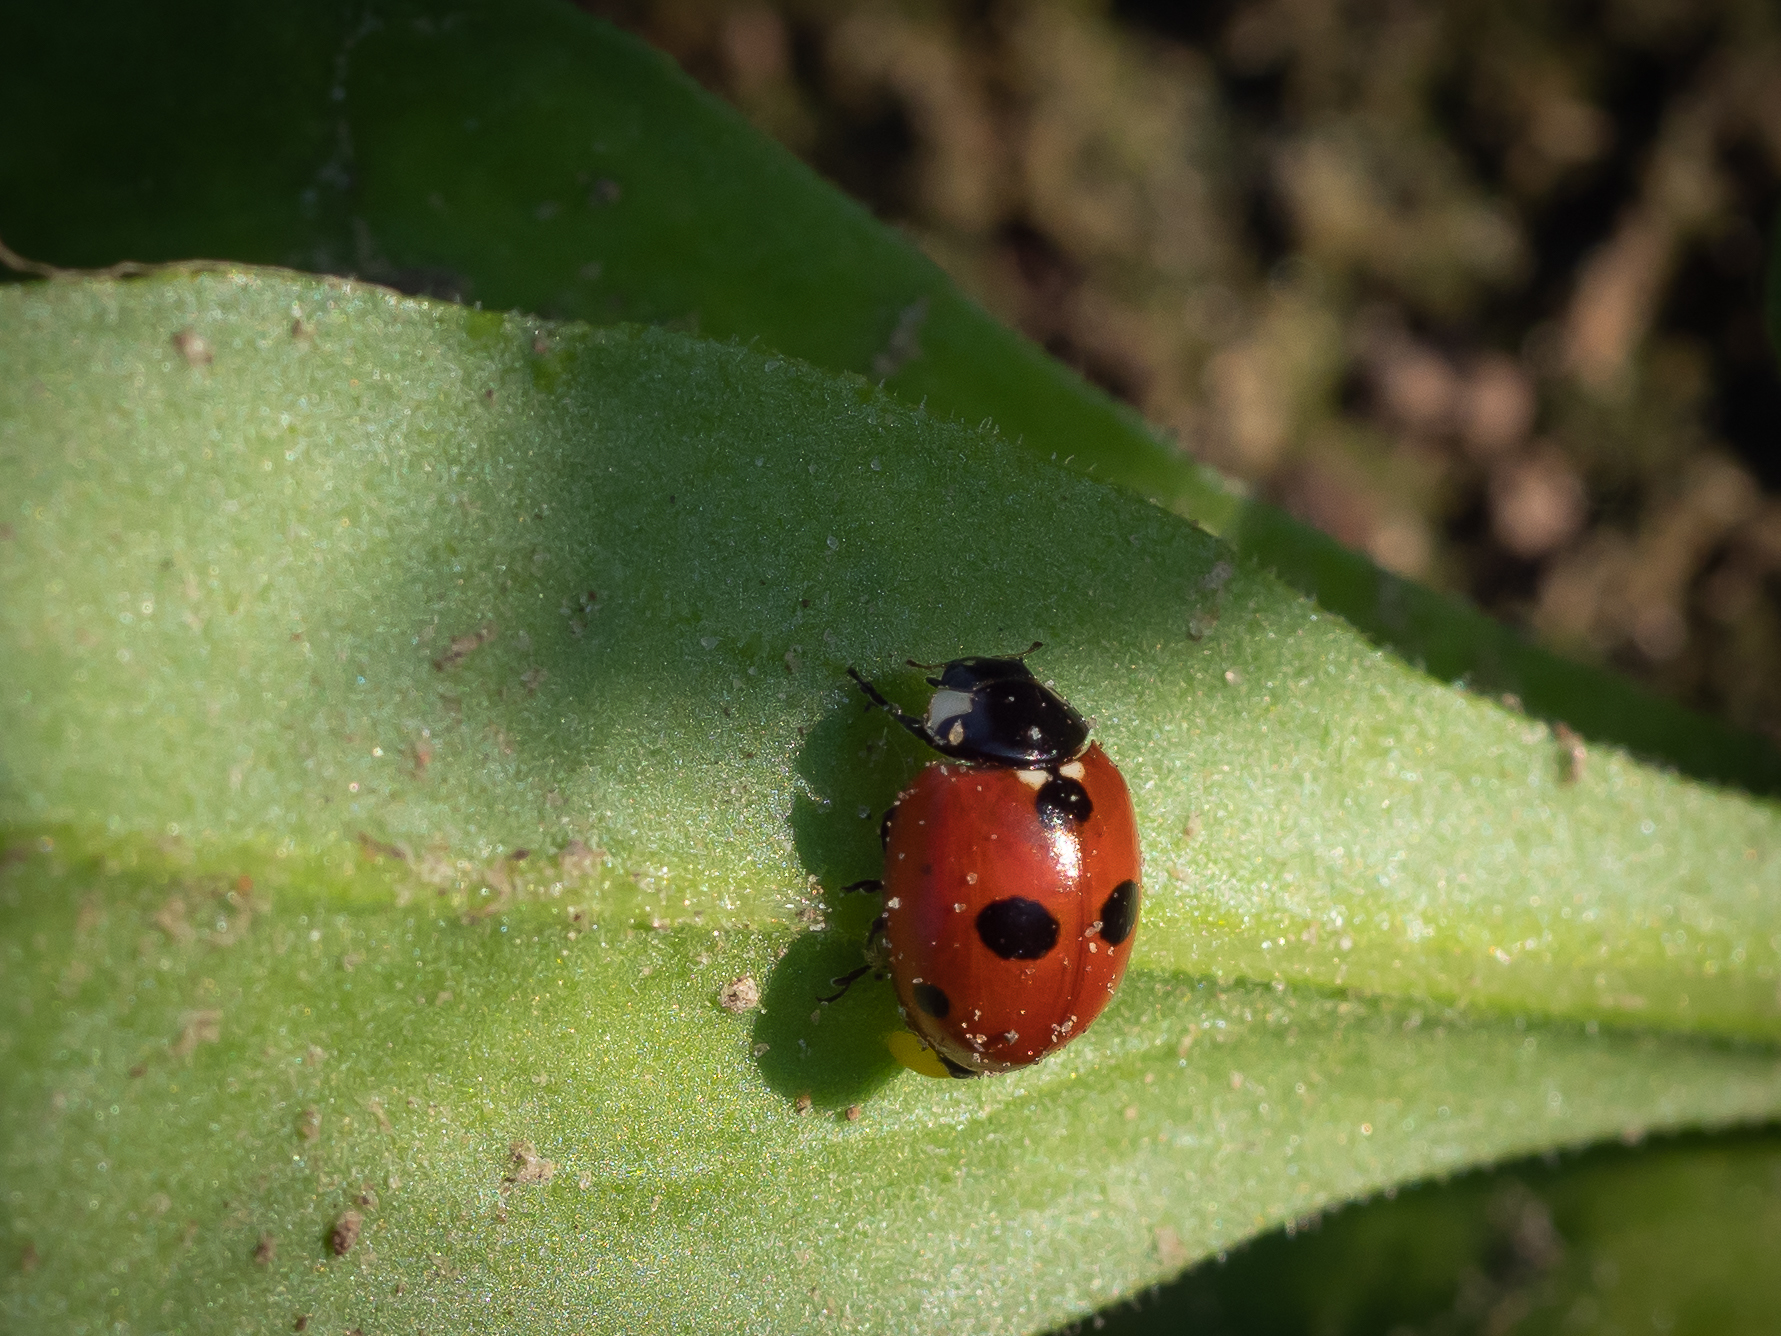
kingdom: Animalia
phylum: Arthropoda
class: Insecta
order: Coleoptera
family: Coccinellidae
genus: Coccinella
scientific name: Coccinella quinquepunctata
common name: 5-spot ladybird
